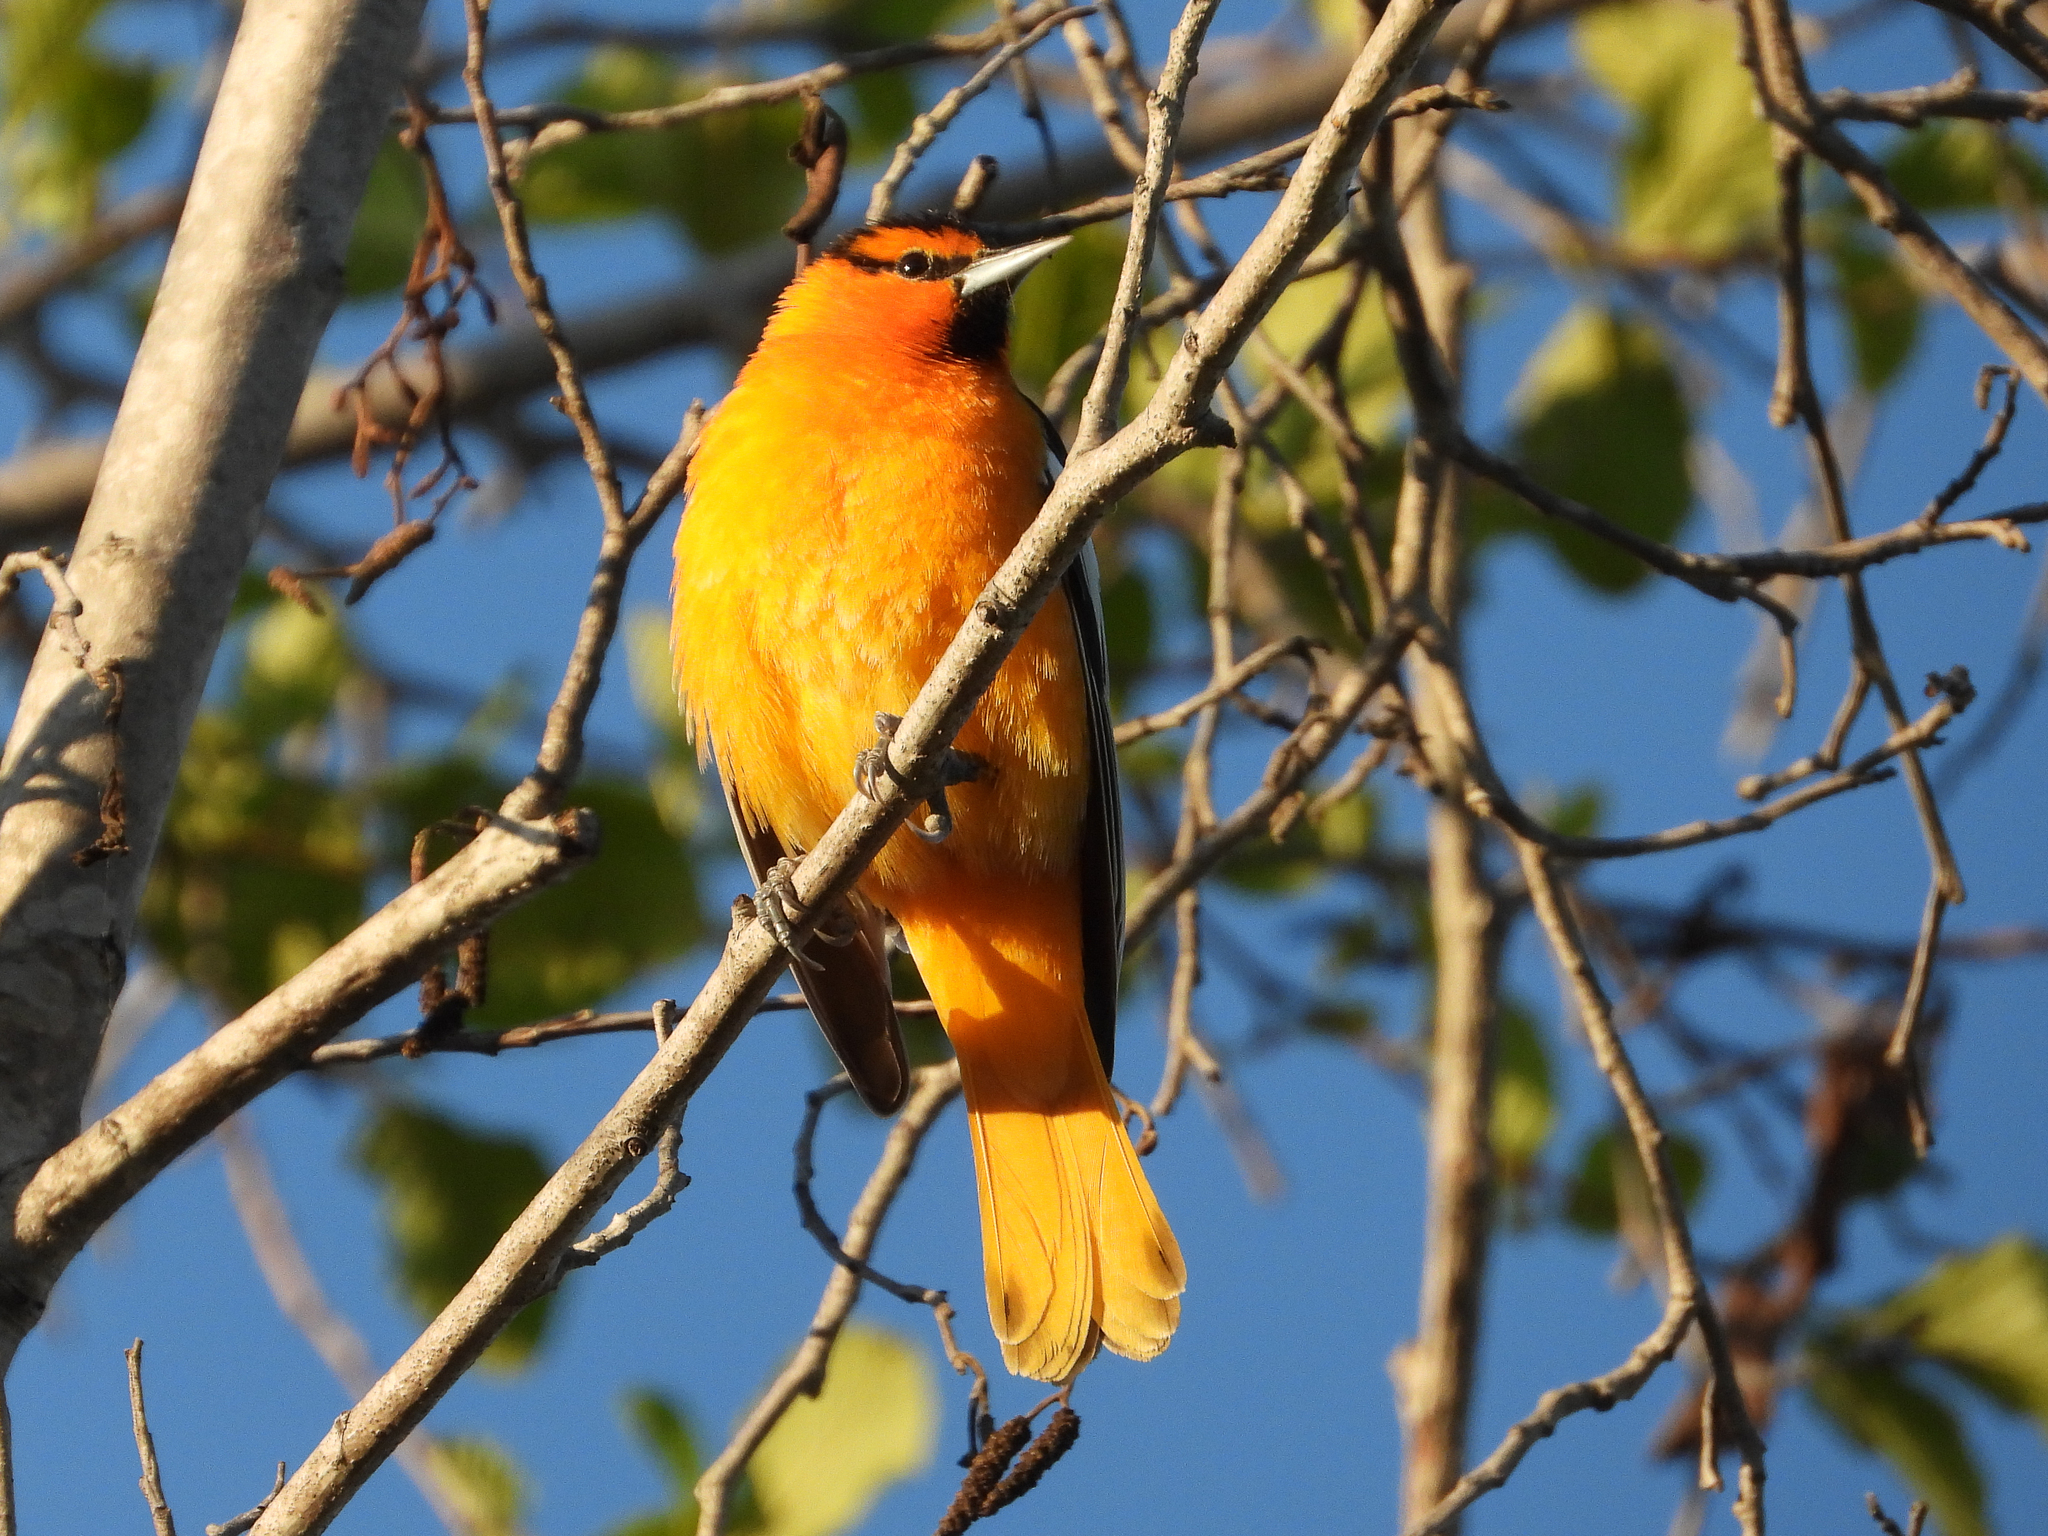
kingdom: Animalia
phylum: Chordata
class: Aves
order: Passeriformes
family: Icteridae
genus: Icterus
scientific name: Icterus bullockii
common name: Bullock's oriole
